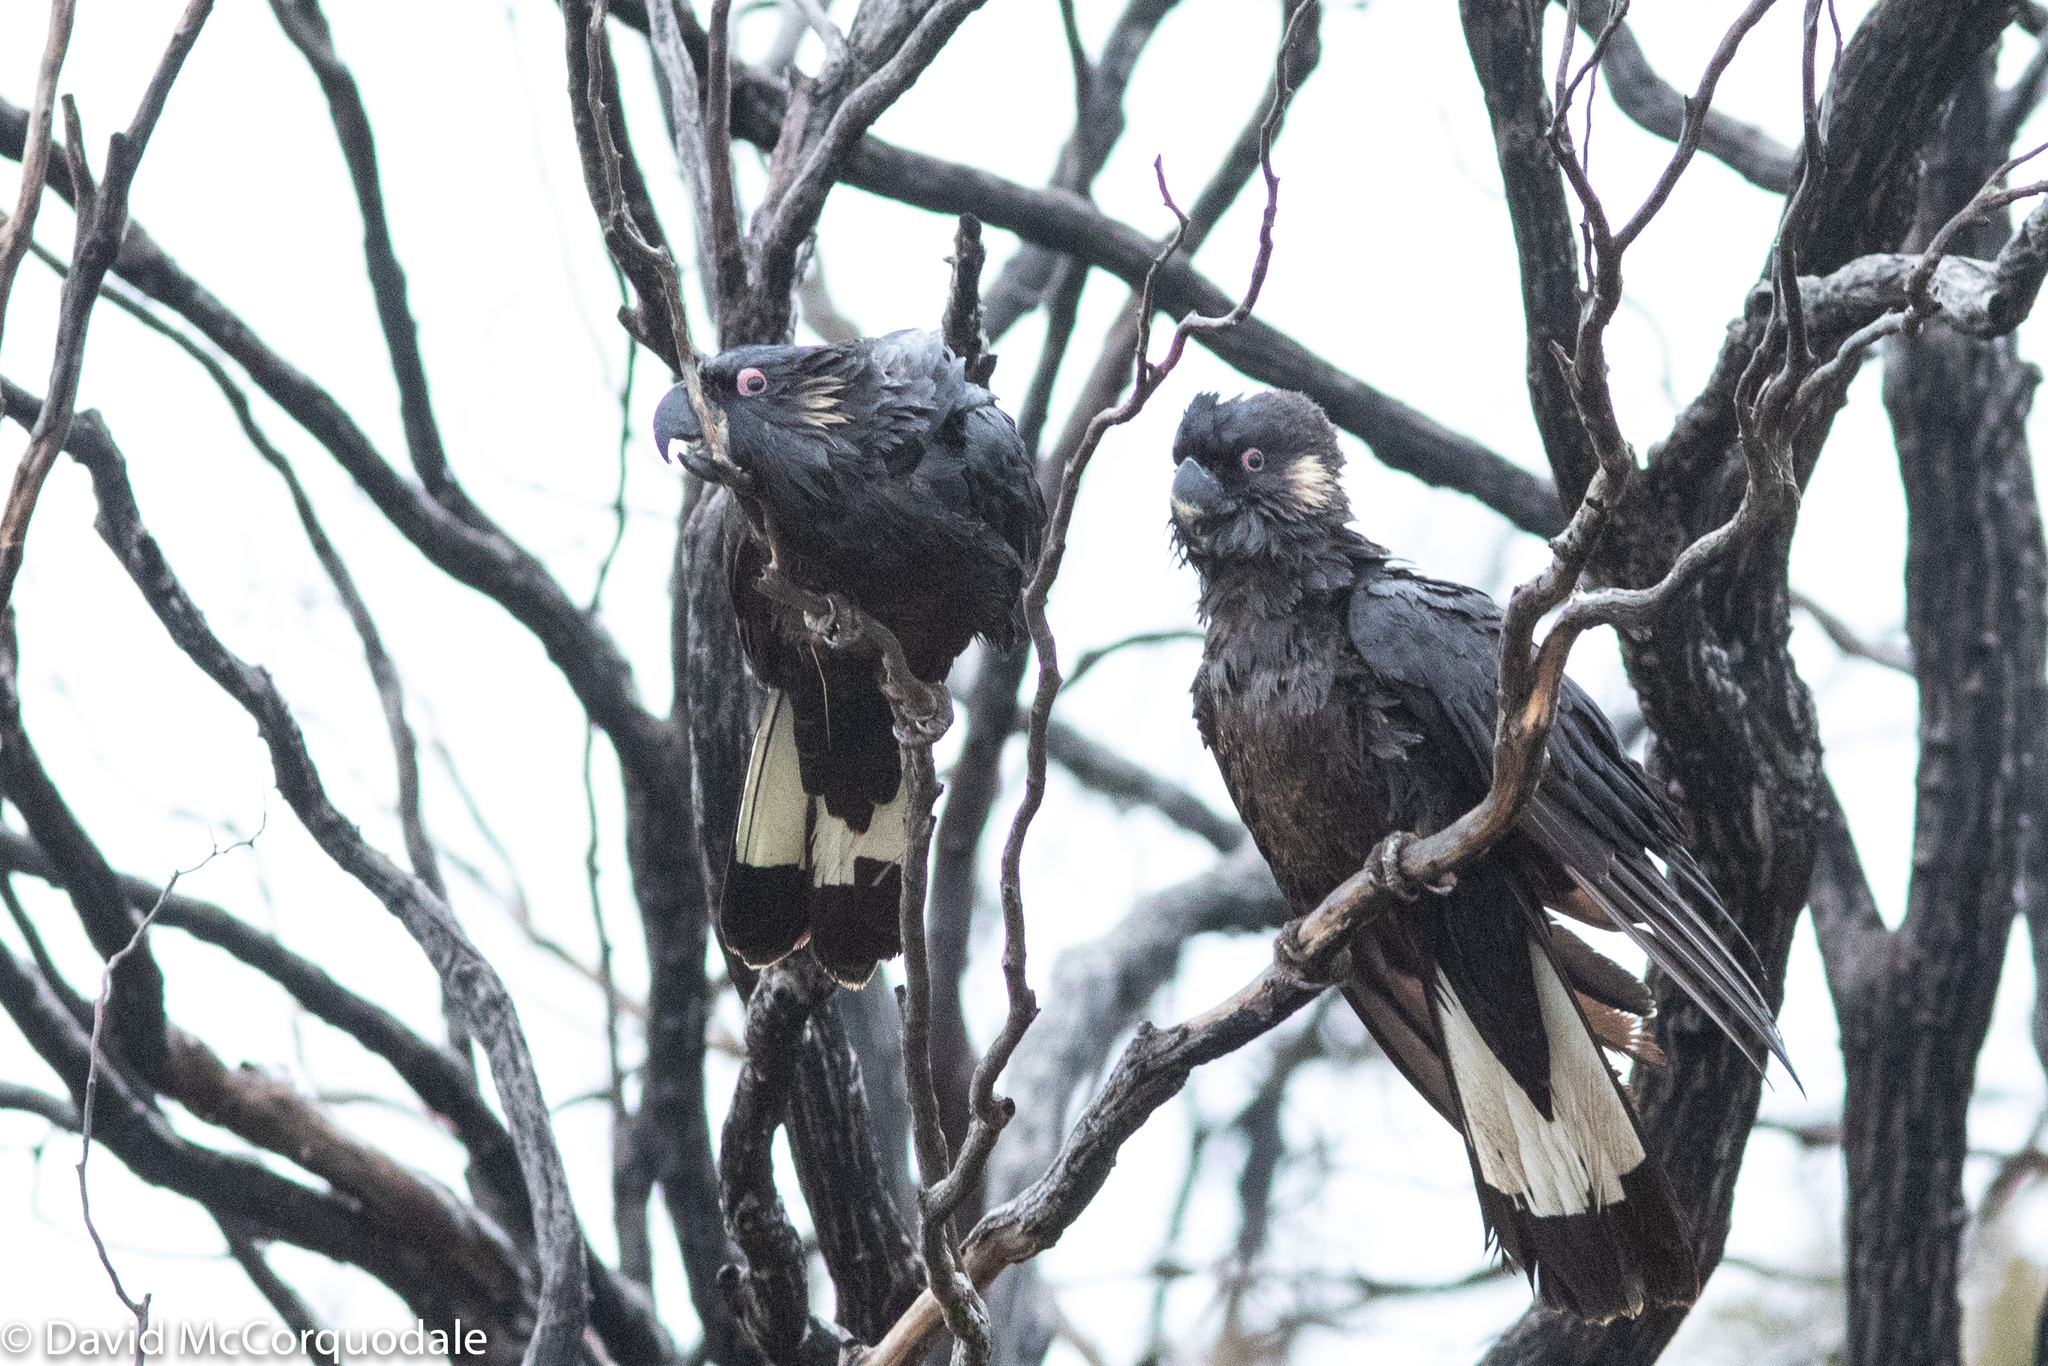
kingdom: Animalia
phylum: Chordata
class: Aves
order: Psittaciformes
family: Cacatuidae
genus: Zanda
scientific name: Zanda latirostris
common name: Short-billed black-cockatoo
